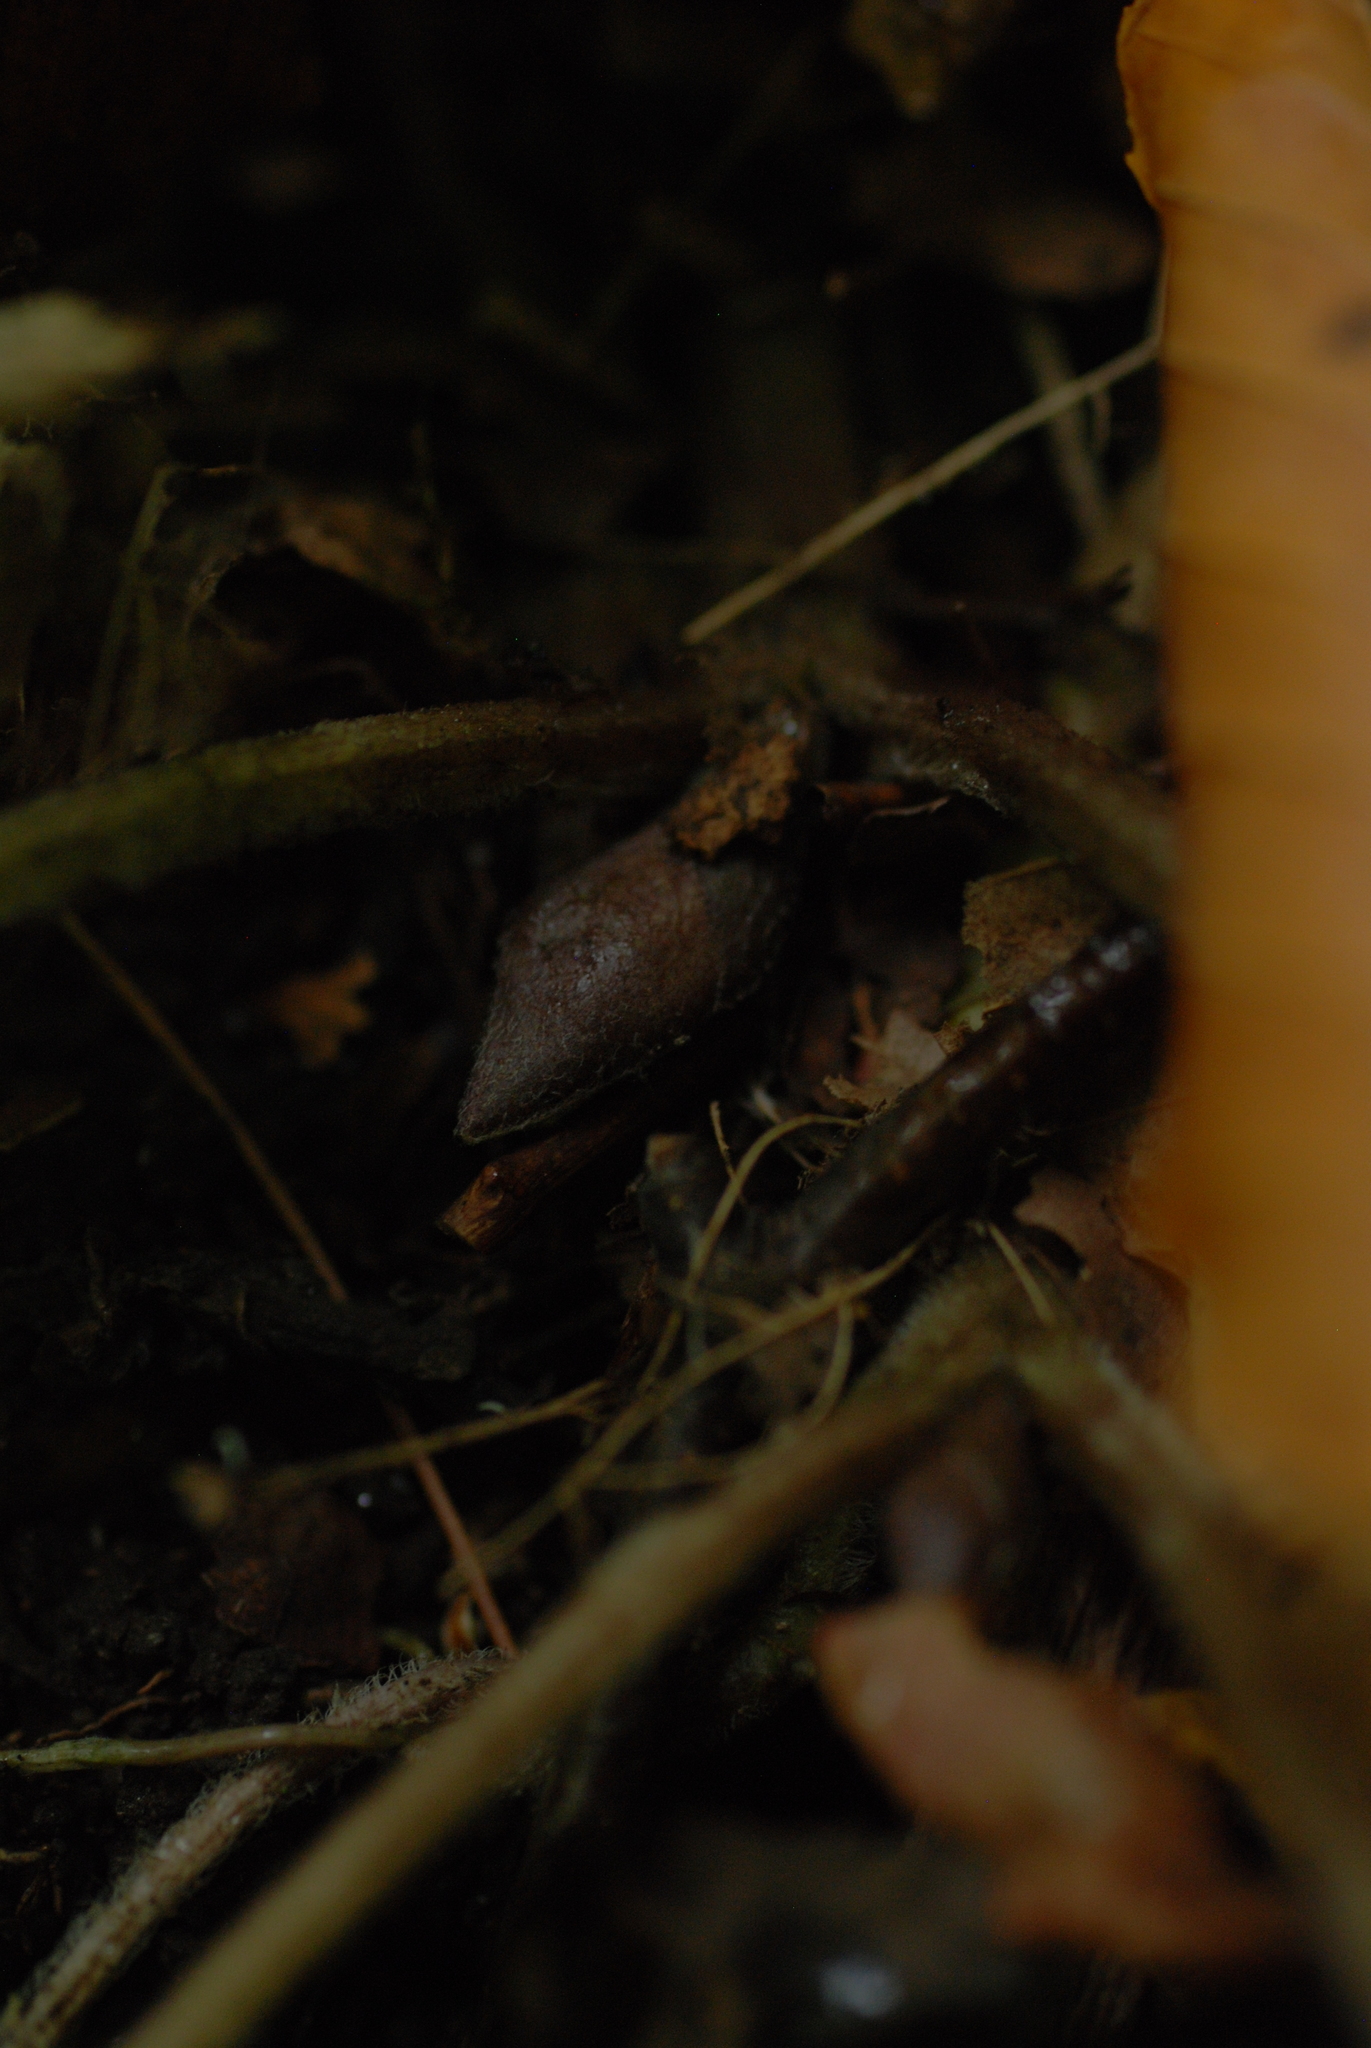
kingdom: Plantae
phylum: Tracheophyta
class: Magnoliopsida
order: Piperales
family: Aristolochiaceae
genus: Asarum
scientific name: Asarum canadense
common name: Wild ginger
